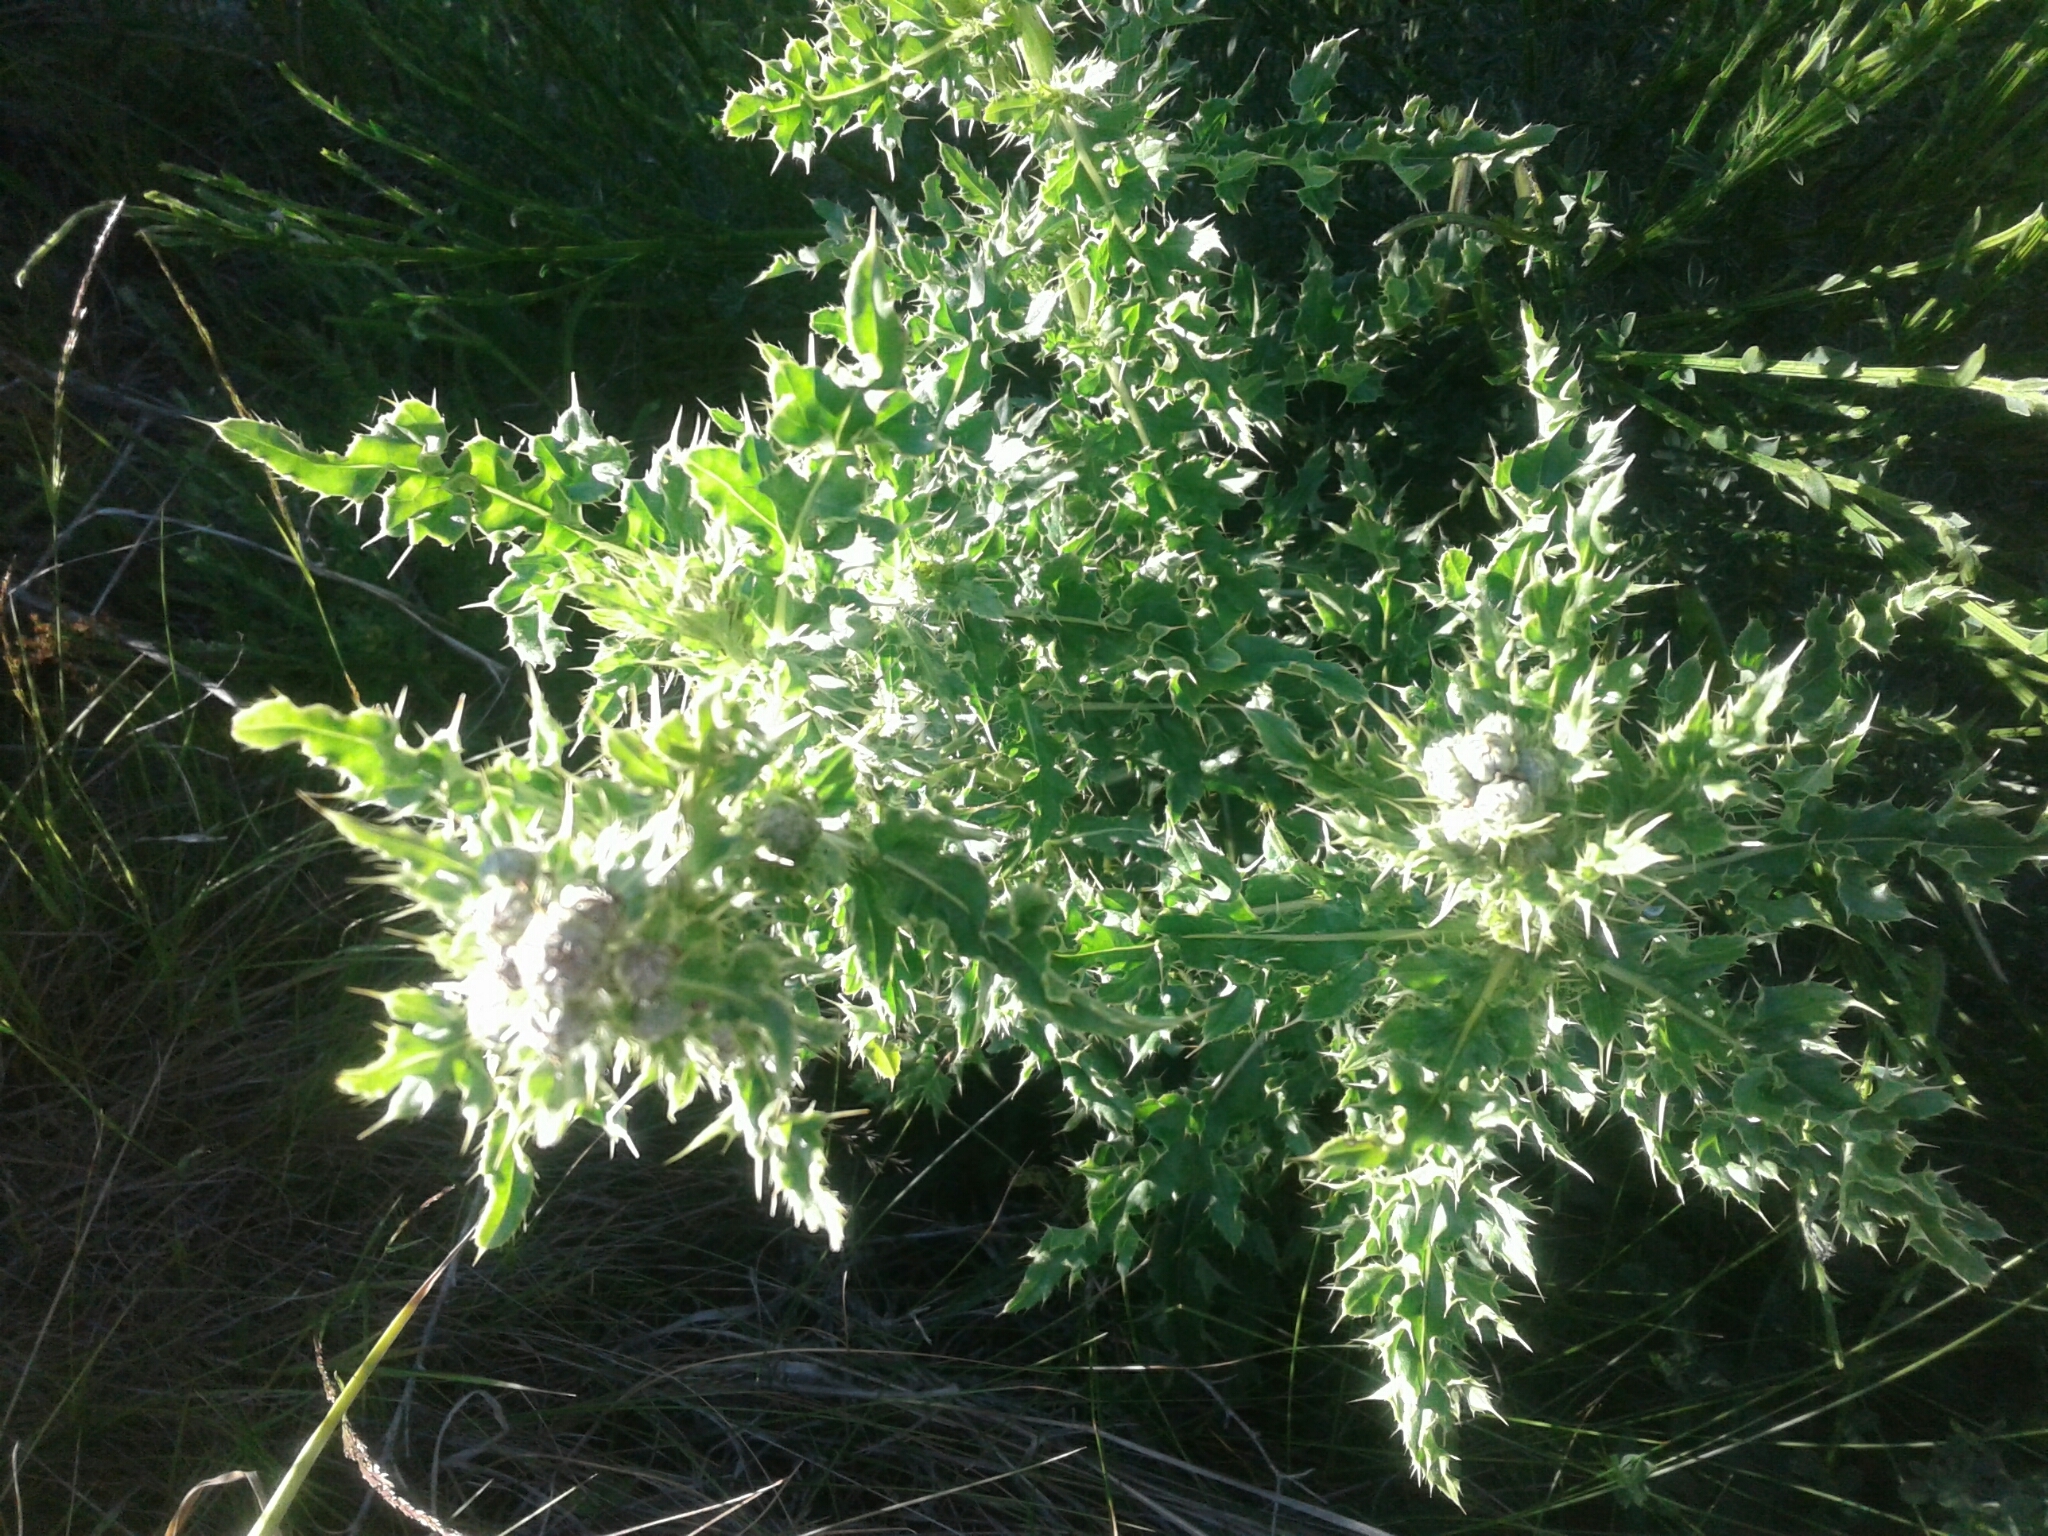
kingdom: Plantae
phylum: Tracheophyta
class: Magnoliopsida
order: Asterales
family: Asteraceae
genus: Cirsium
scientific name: Cirsium arvense
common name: Creeping thistle
